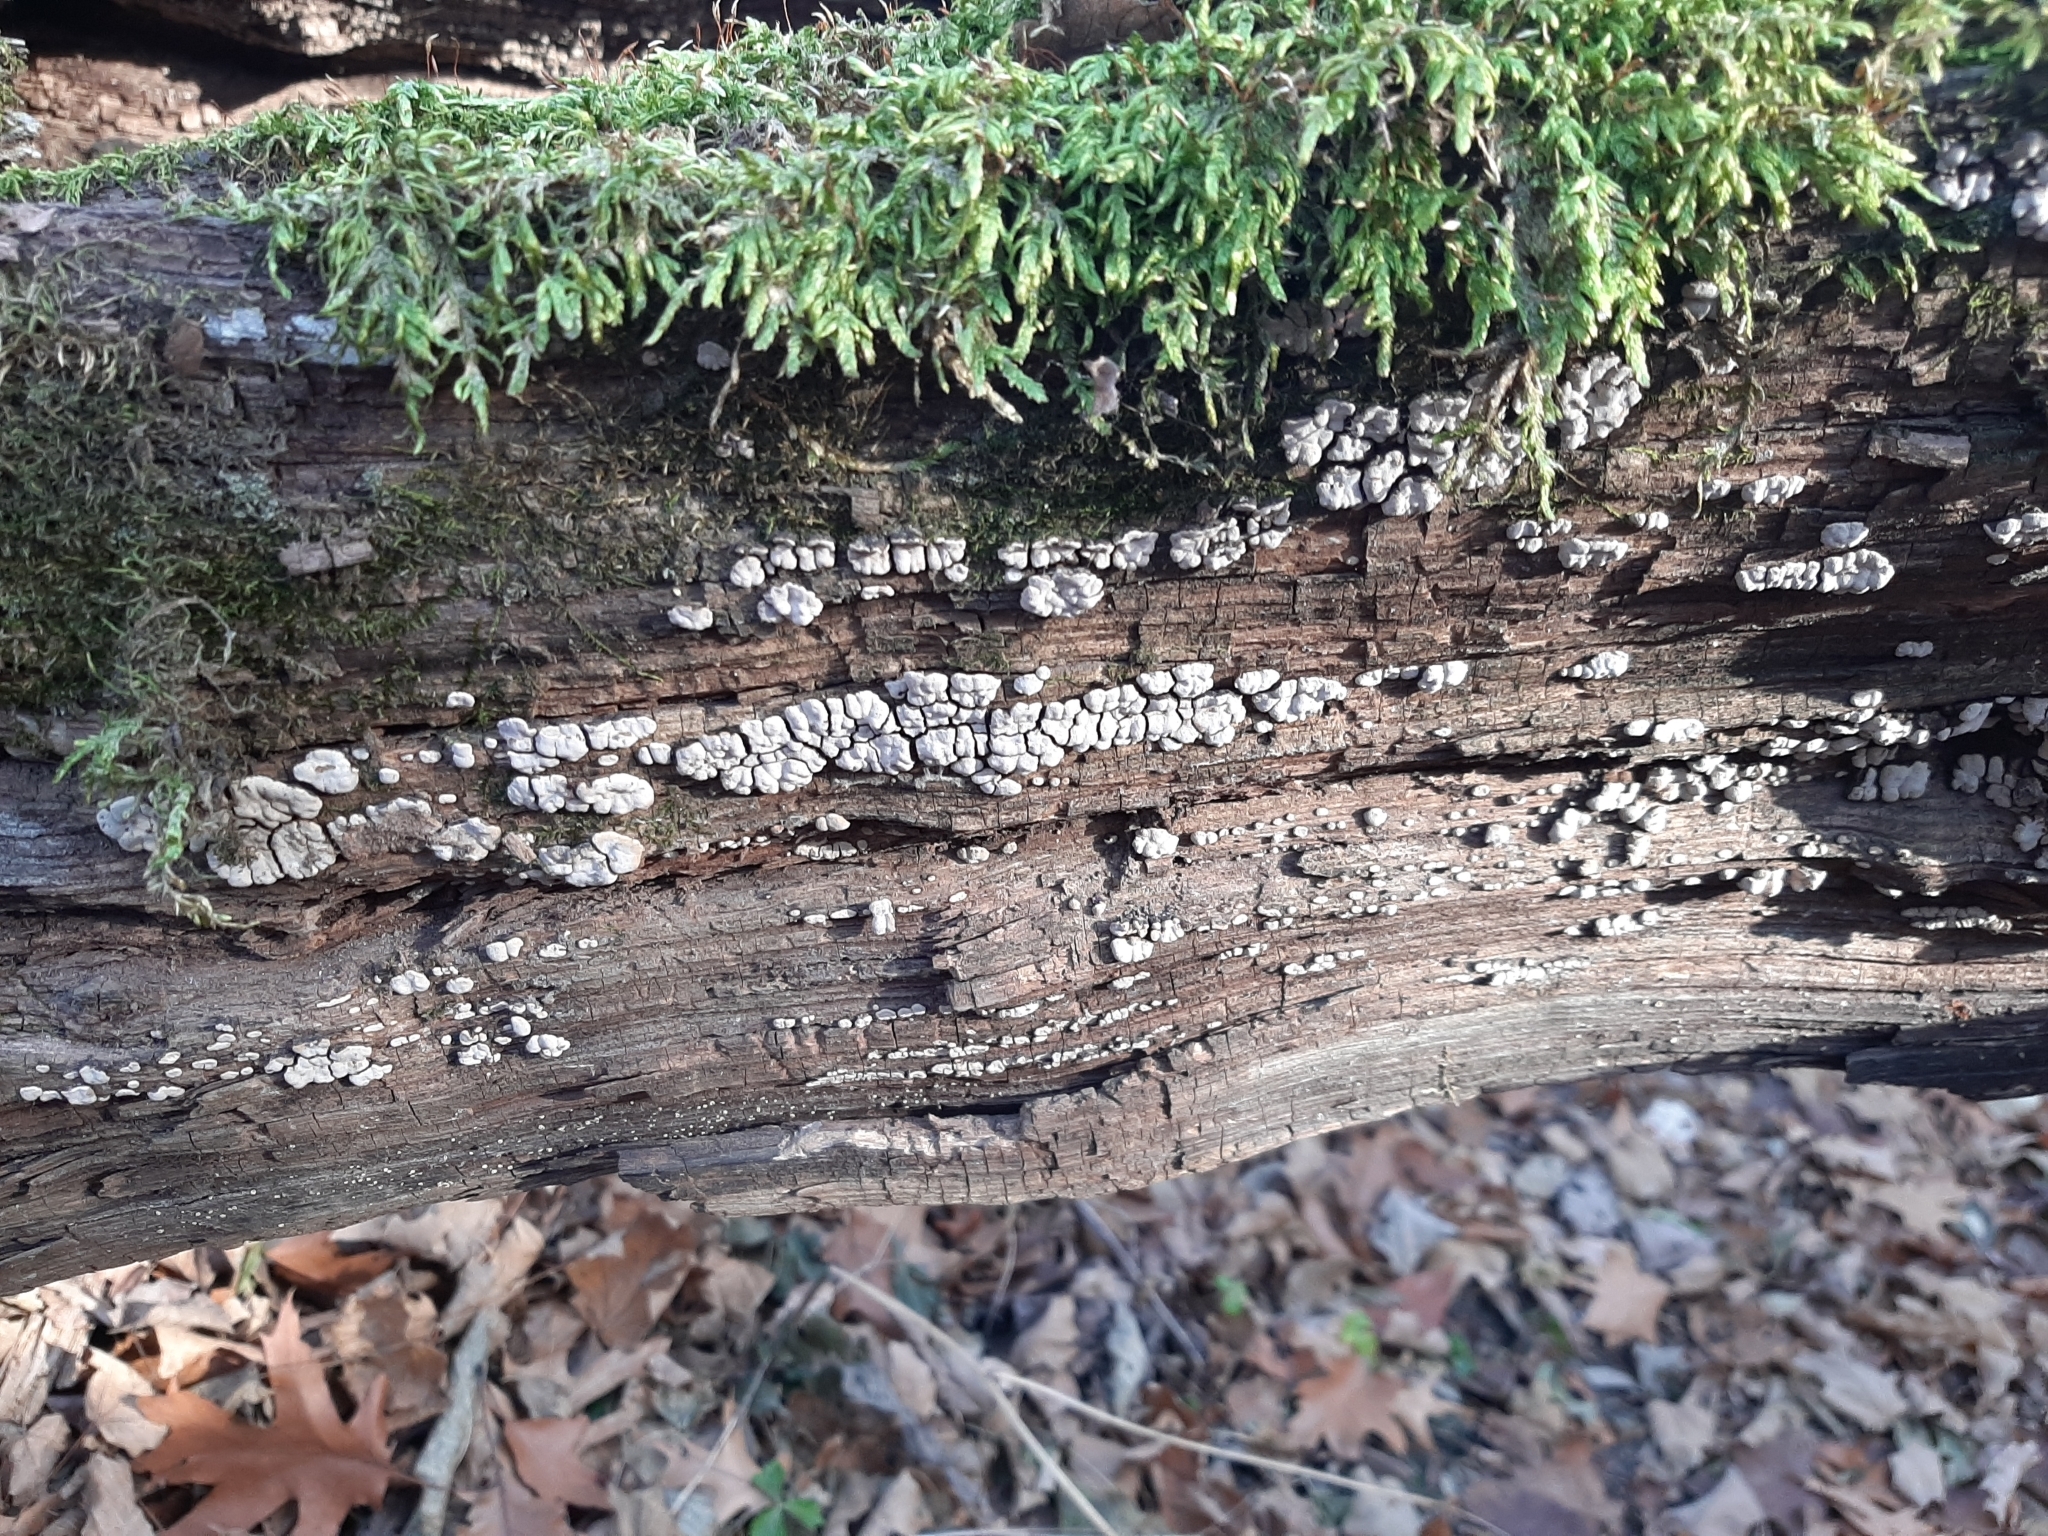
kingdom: Fungi
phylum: Basidiomycota
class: Agaricomycetes
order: Russulales
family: Stereaceae
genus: Xylobolus
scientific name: Xylobolus frustulatus
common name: Ceramic parchment
